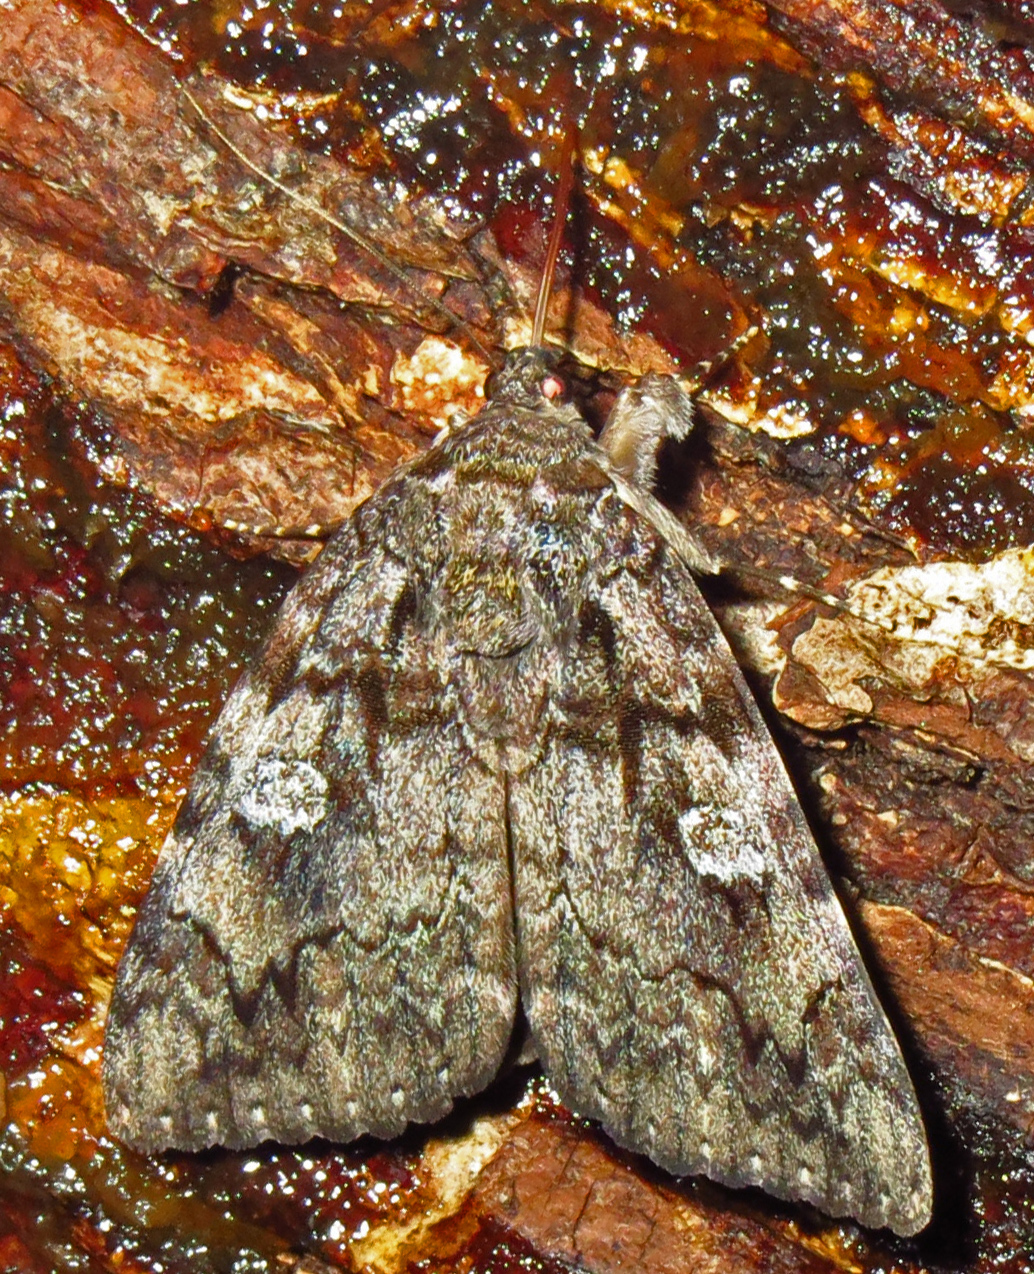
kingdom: Animalia
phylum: Arthropoda
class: Insecta
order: Lepidoptera
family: Erebidae
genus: Catocala
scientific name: Catocala ilia
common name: Ilia underwing
